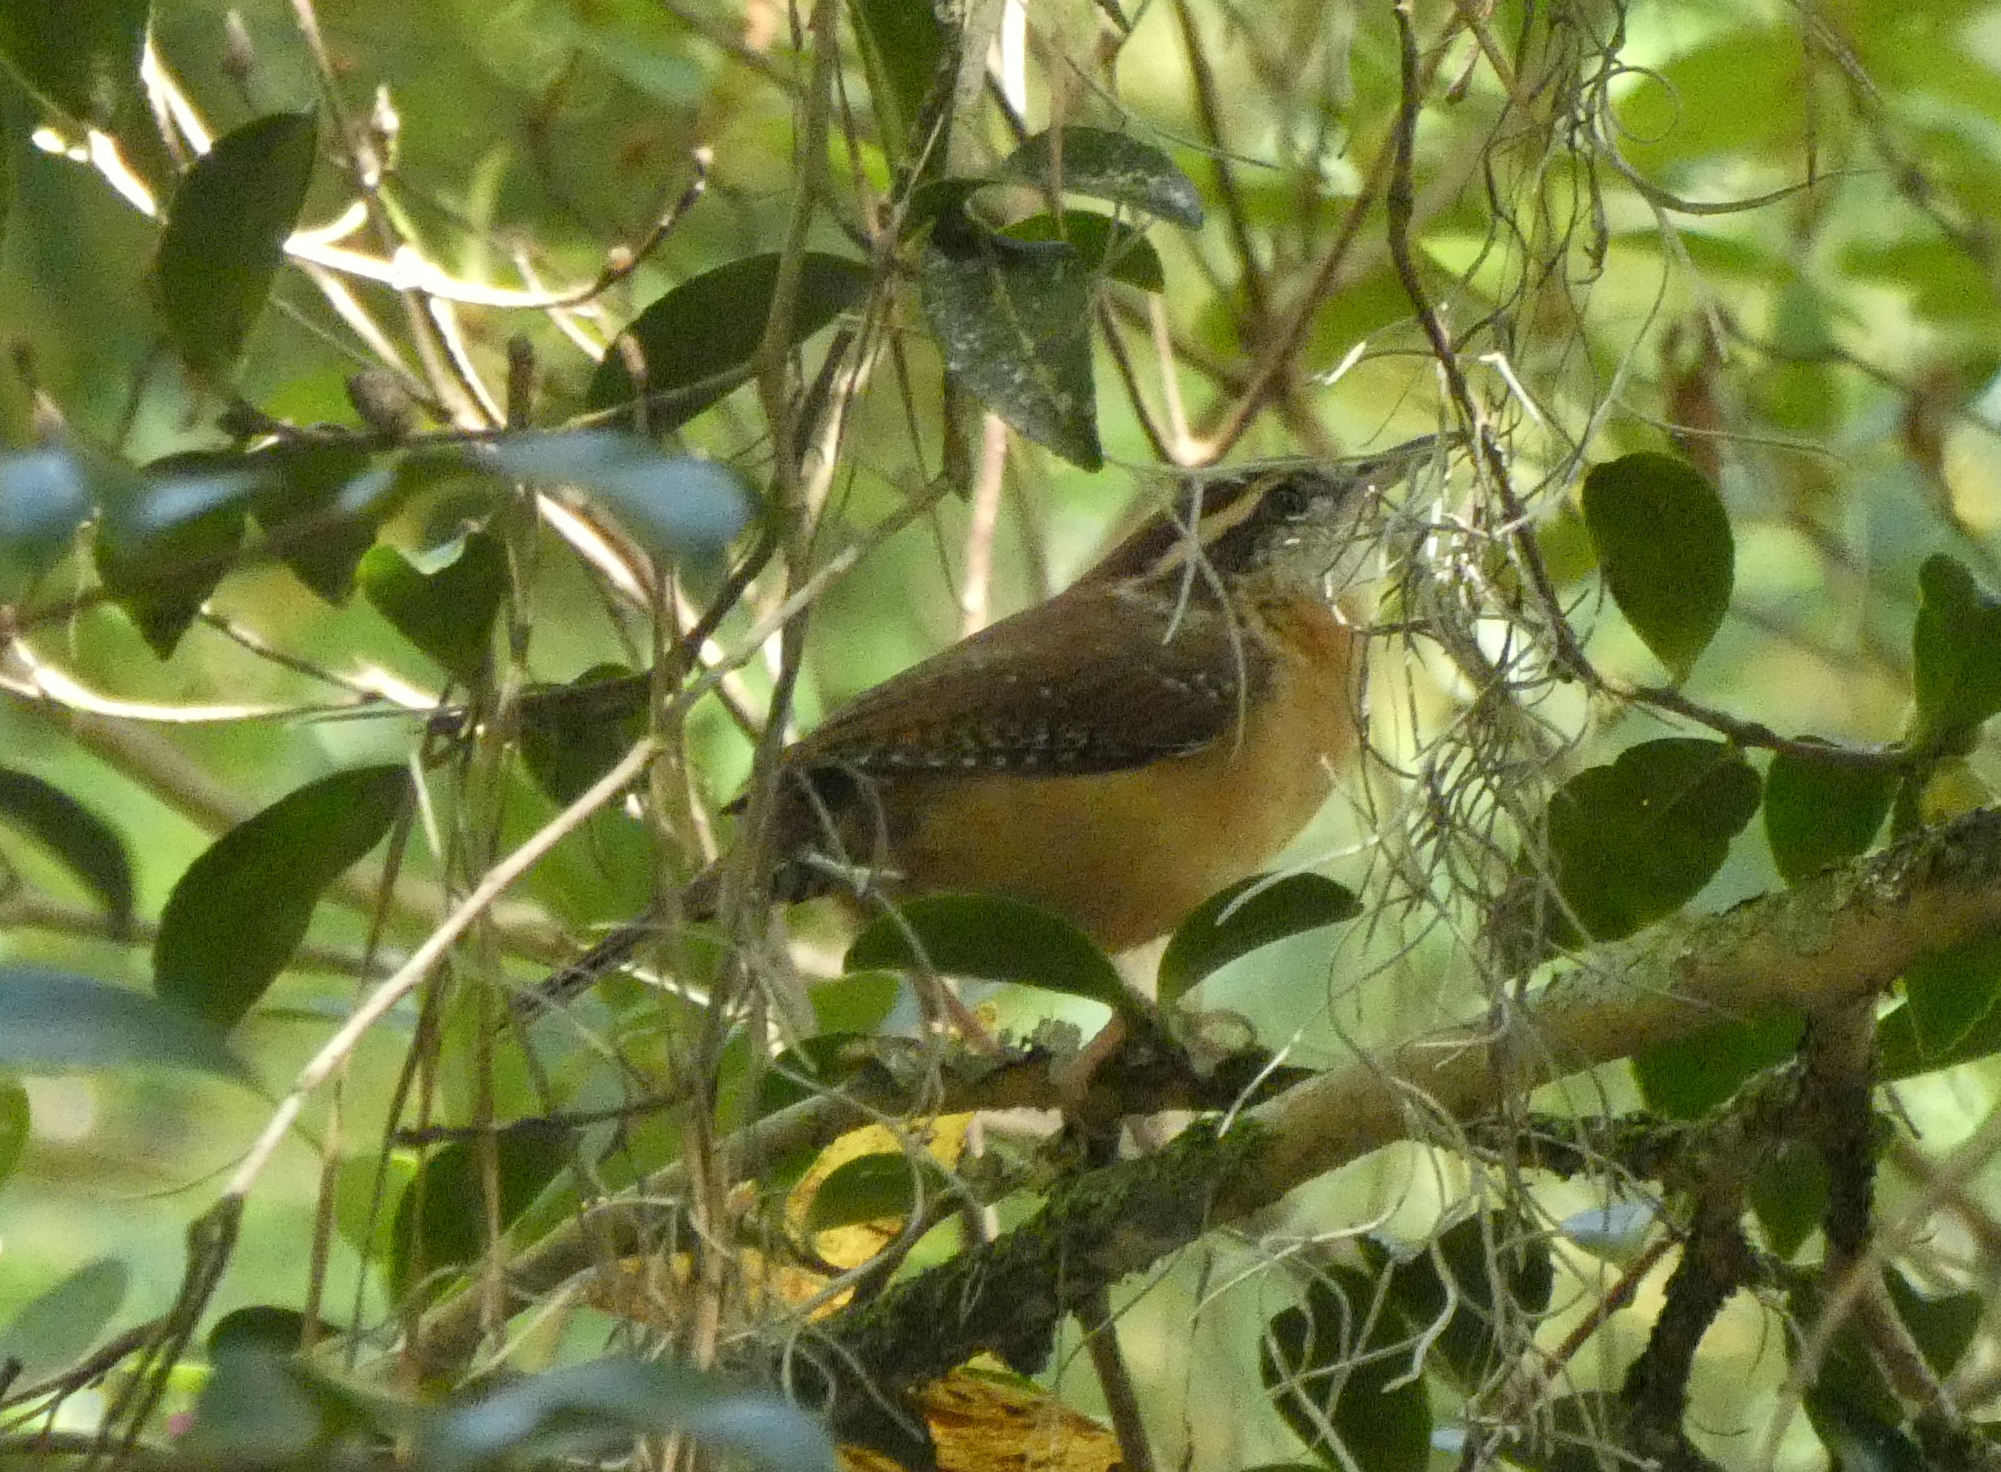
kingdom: Animalia
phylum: Chordata
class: Aves
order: Passeriformes
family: Troglodytidae
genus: Thryothorus
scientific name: Thryothorus ludovicianus
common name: Carolina wren
